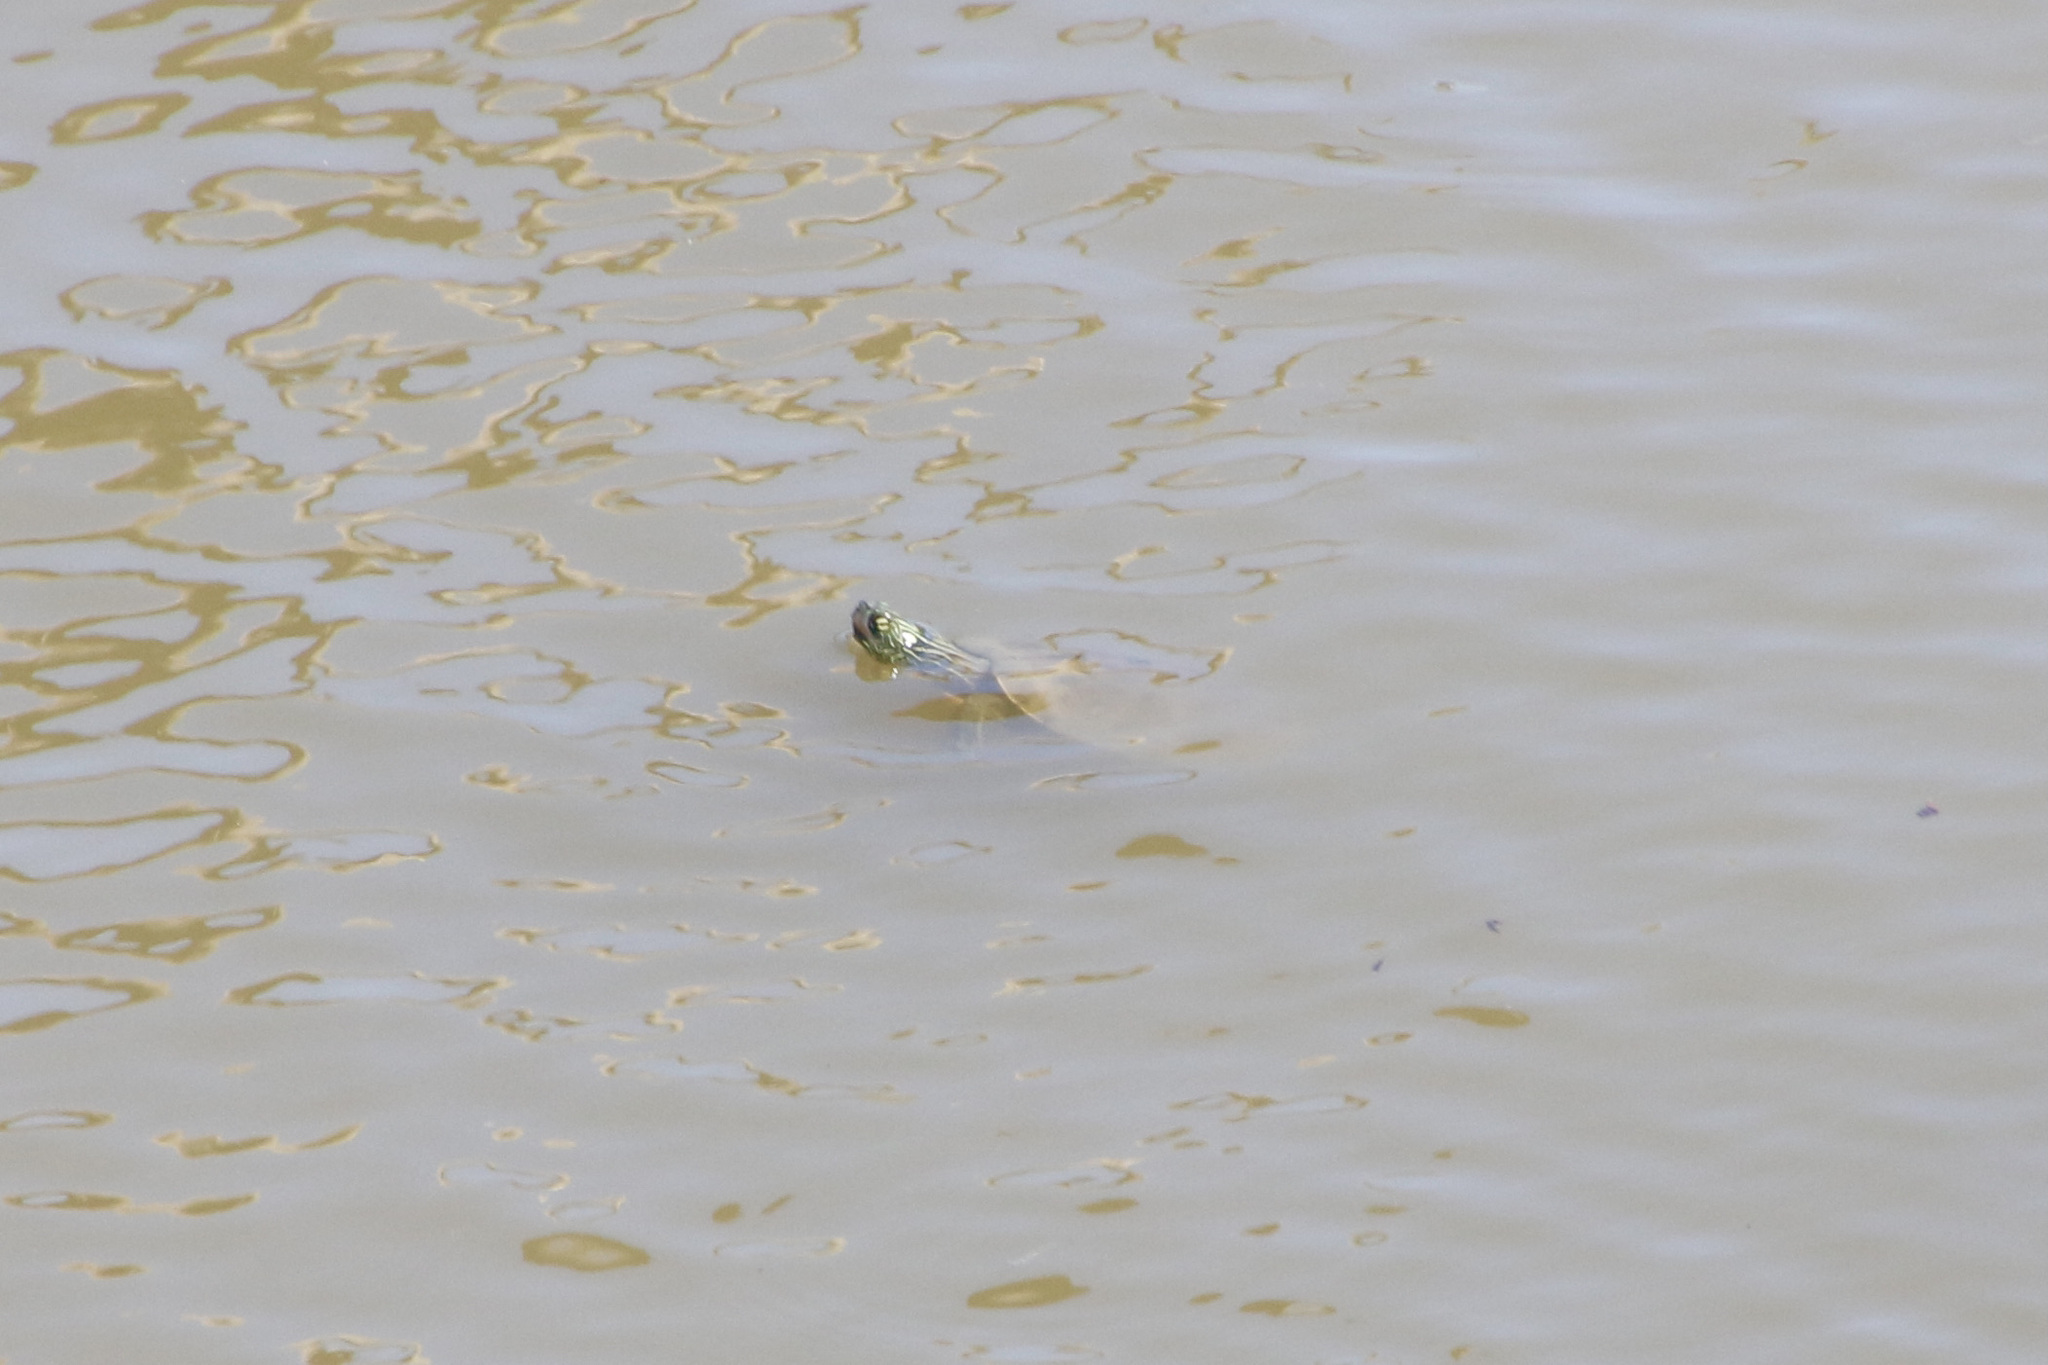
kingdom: Animalia
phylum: Chordata
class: Testudines
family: Emydidae
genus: Graptemys
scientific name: Graptemys geographica
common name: Common map turtle
